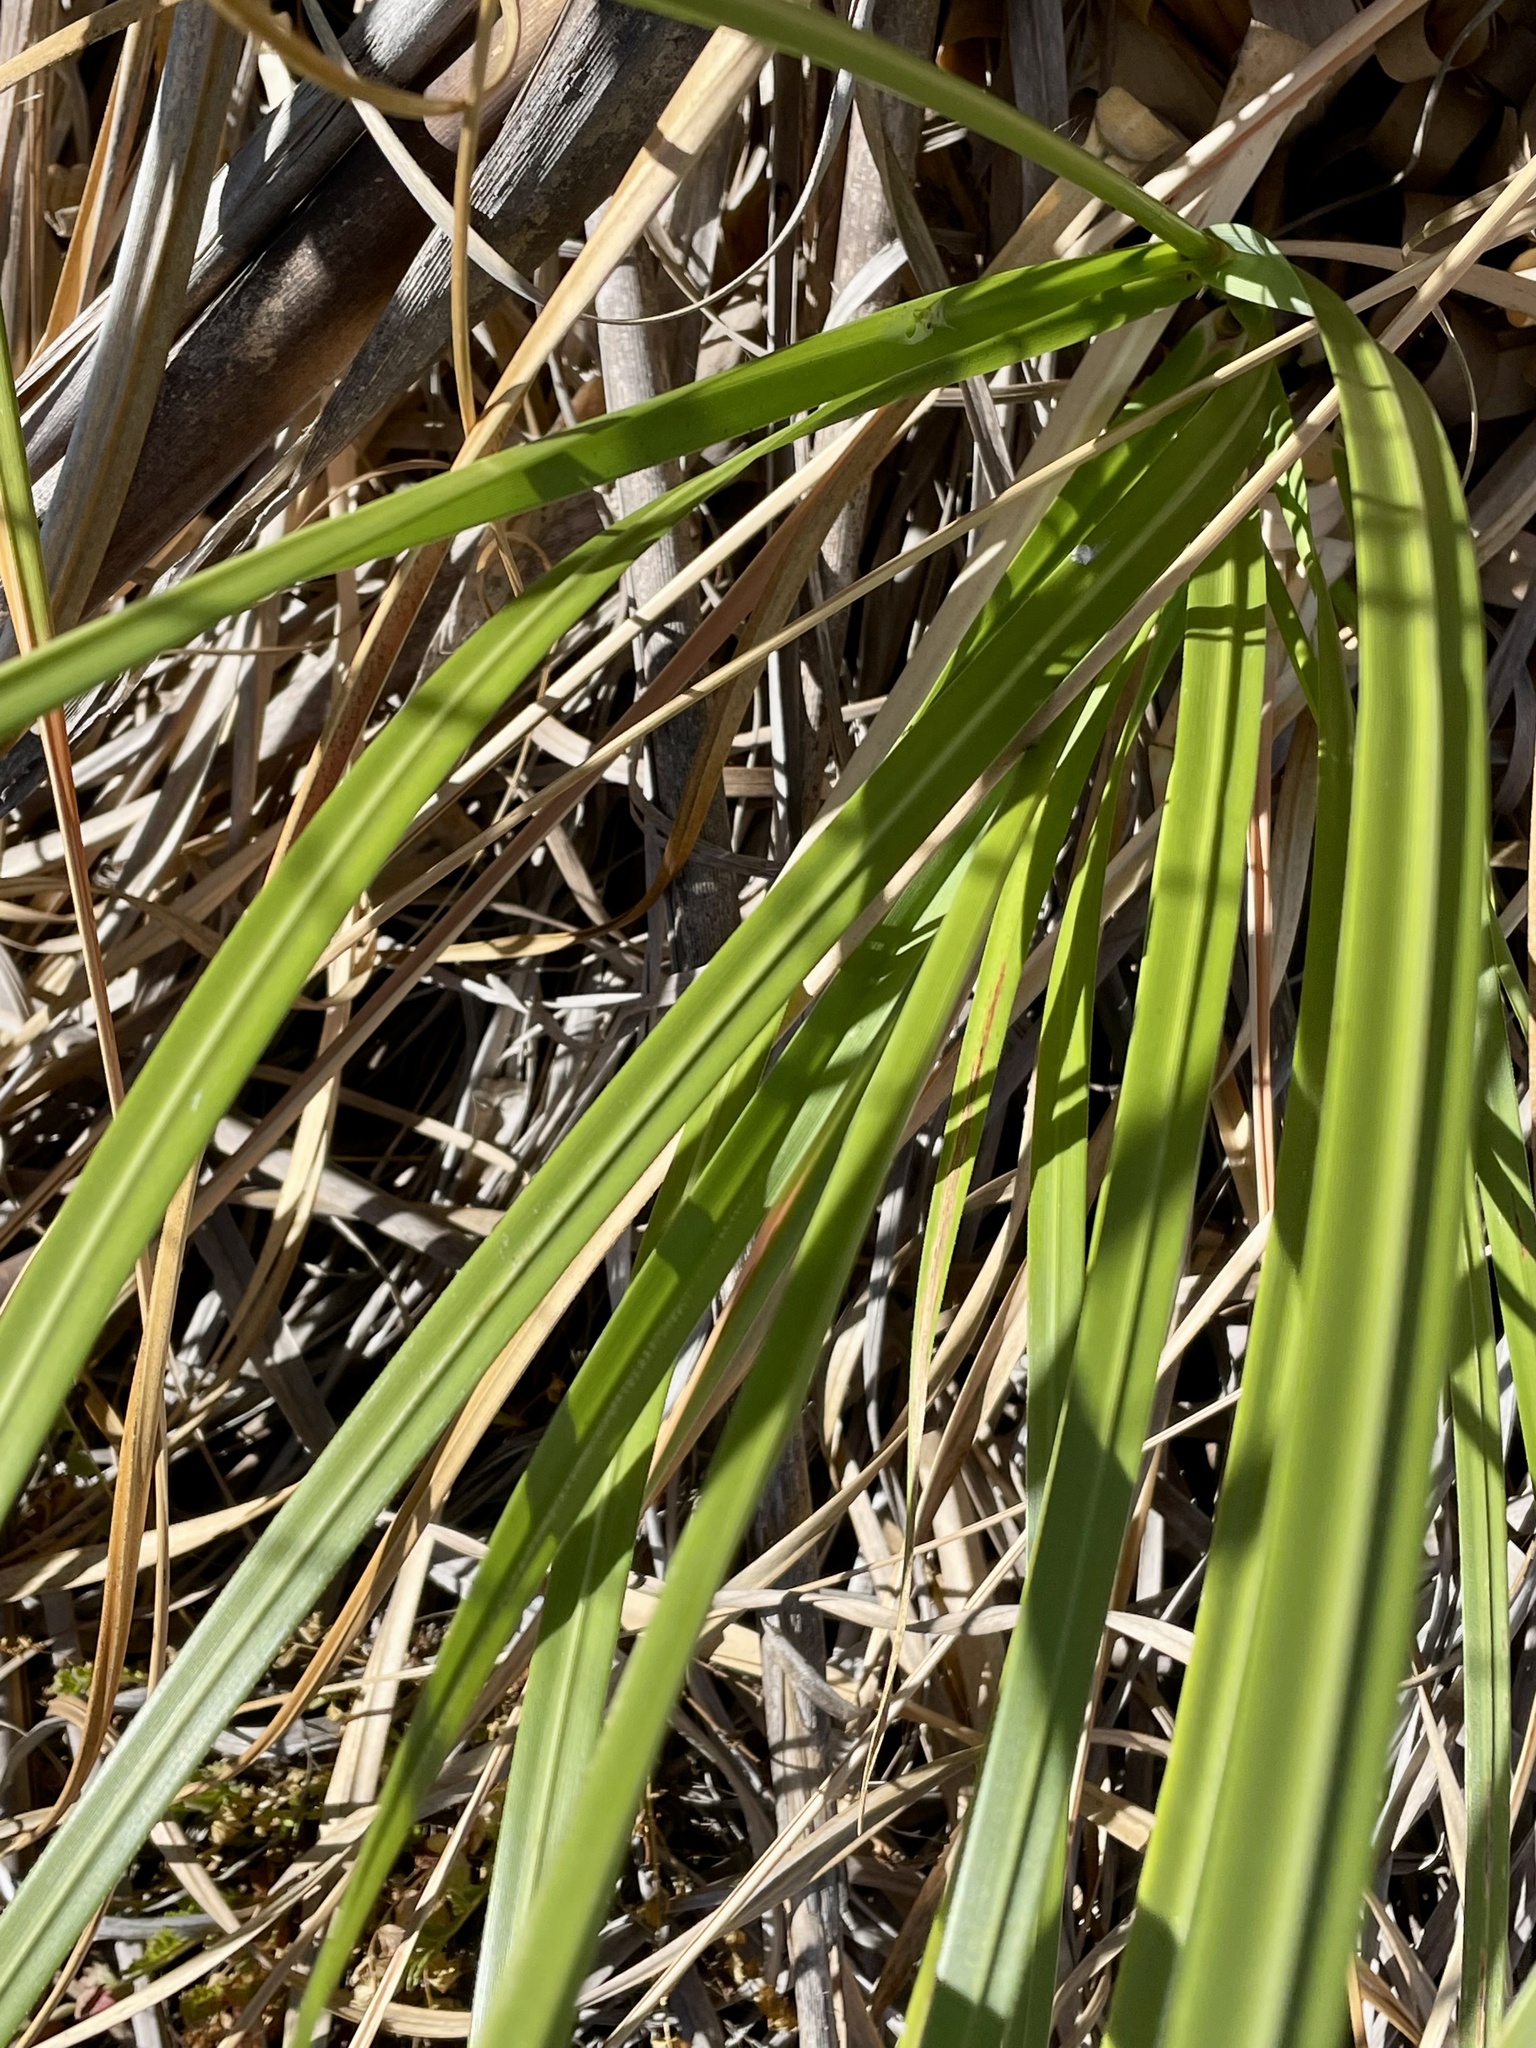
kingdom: Plantae
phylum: Tracheophyta
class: Liliopsida
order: Poales
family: Poaceae
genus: Cortaderia
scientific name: Cortaderia jubata
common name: Purple pampas grass
